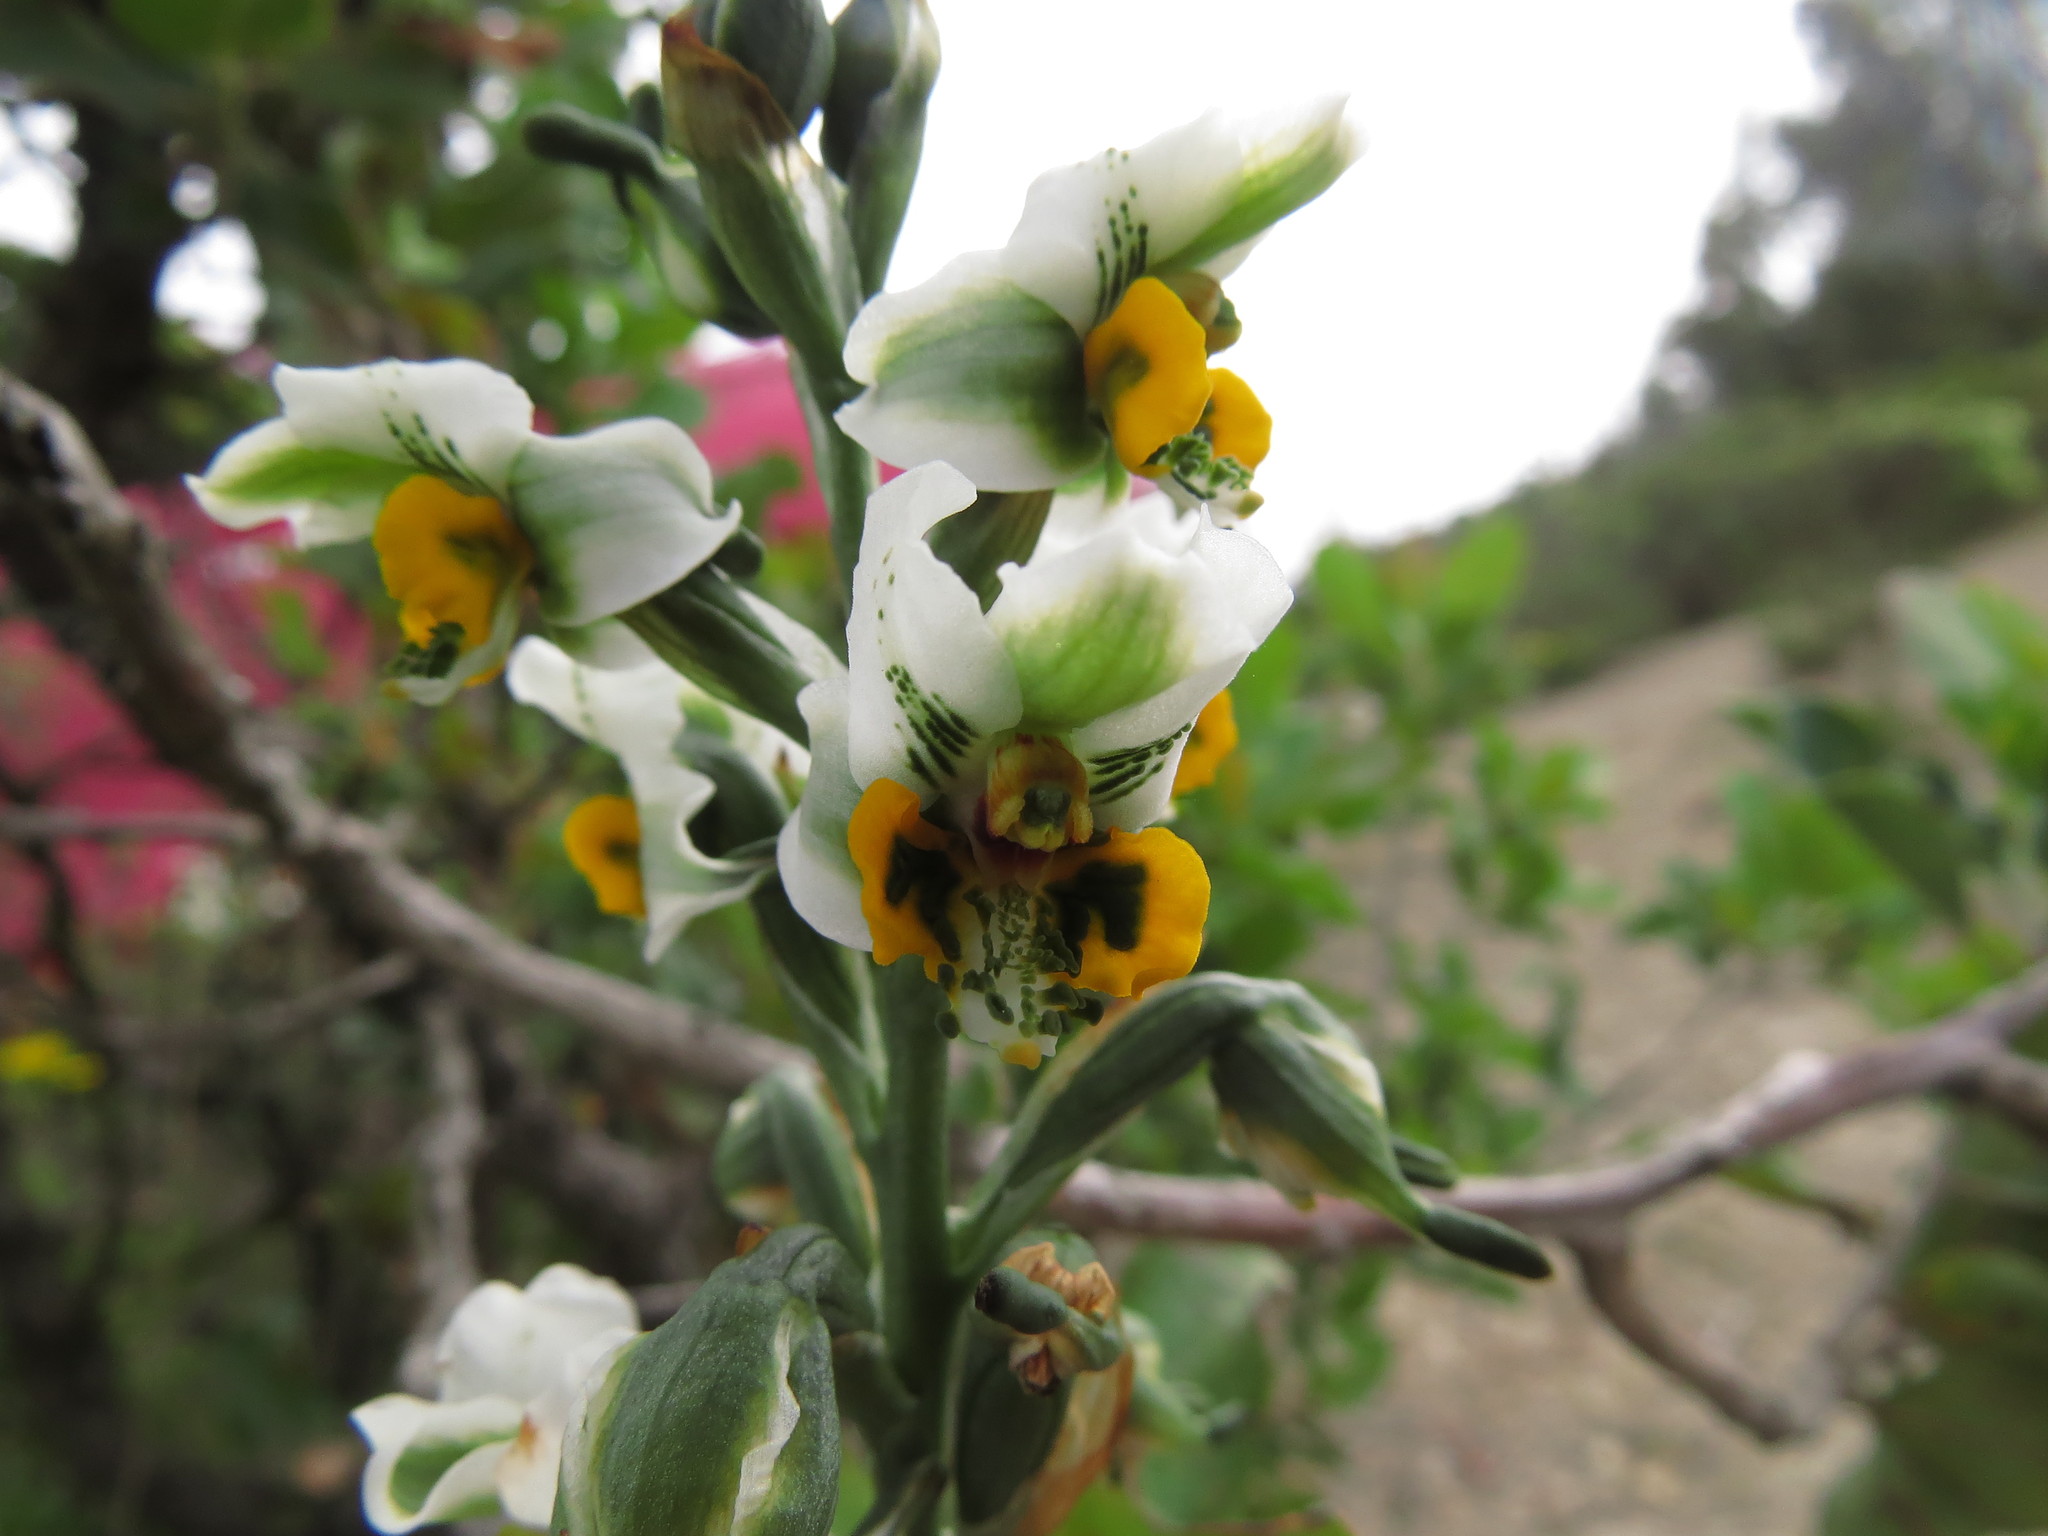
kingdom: Plantae
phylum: Tracheophyta
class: Liliopsida
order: Asparagales
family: Orchidaceae
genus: Gavilea
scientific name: Gavilea platyantha
